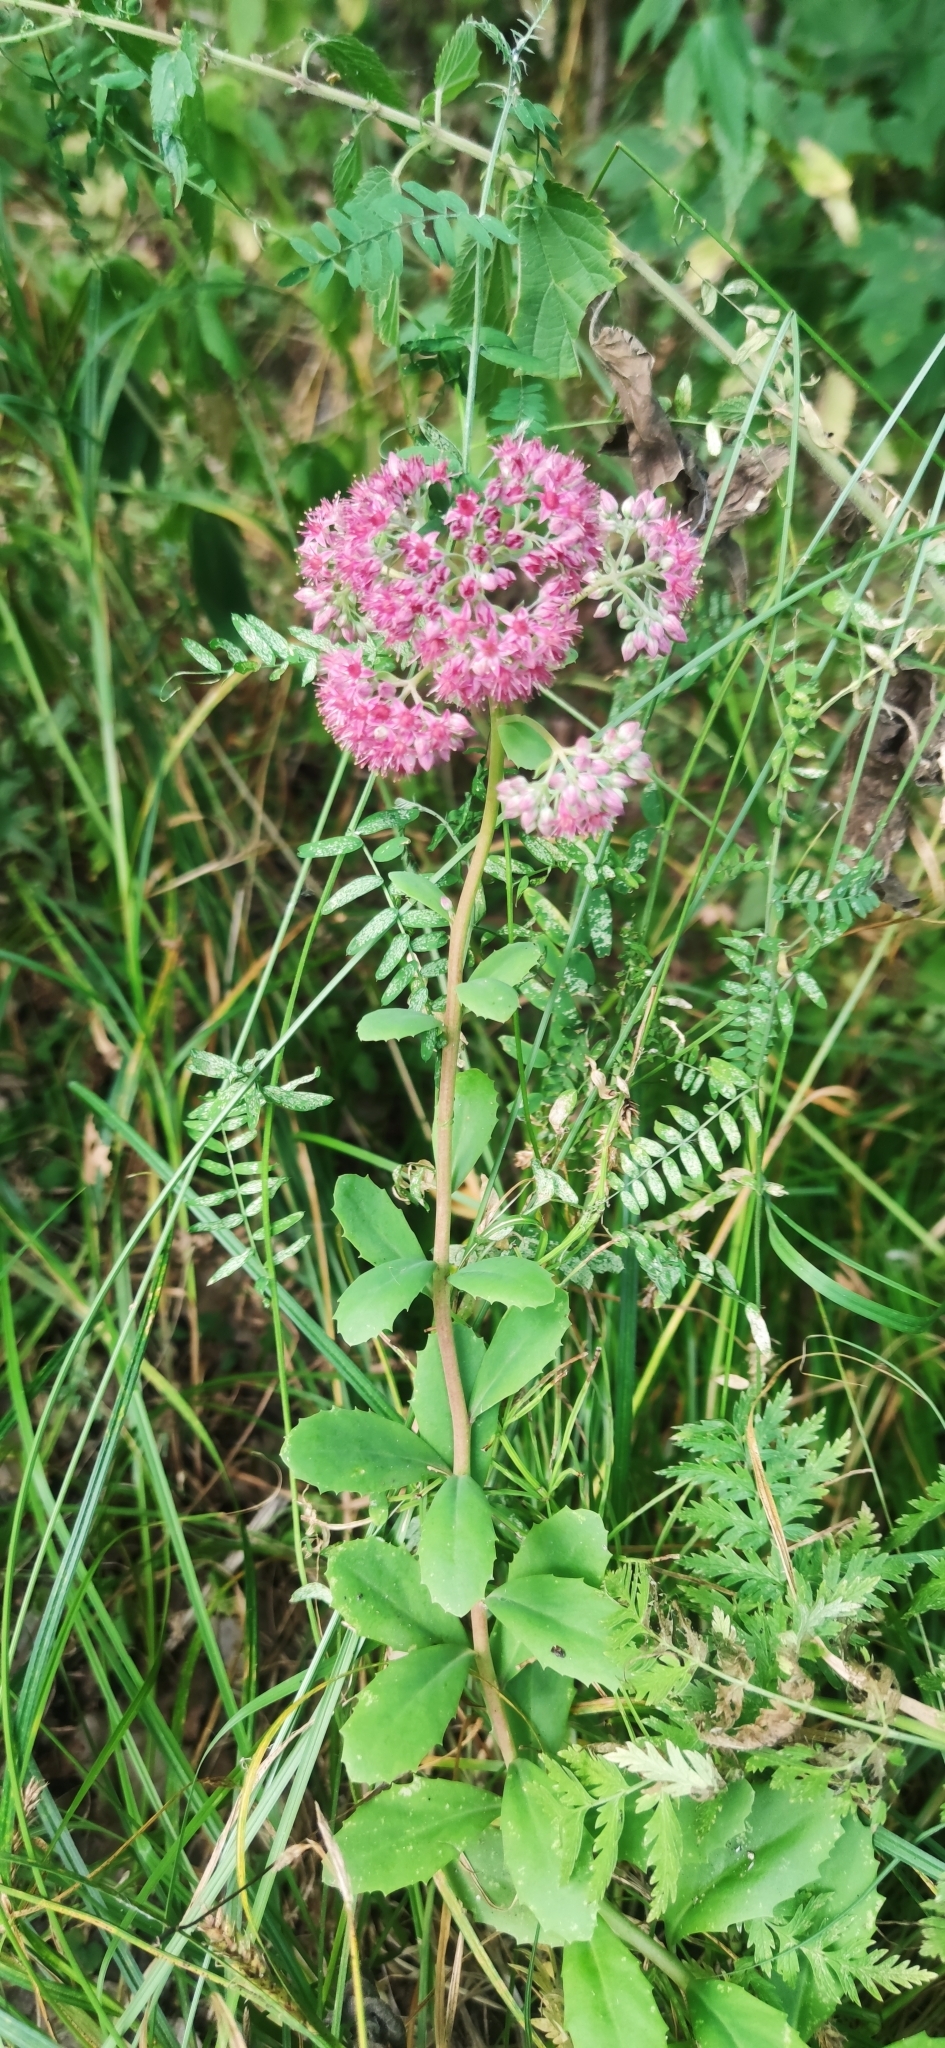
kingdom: Plantae
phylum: Tracheophyta
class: Magnoliopsida
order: Saxifragales
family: Crassulaceae
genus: Hylotelephium
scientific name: Hylotelephium telephium
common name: Live-forever
